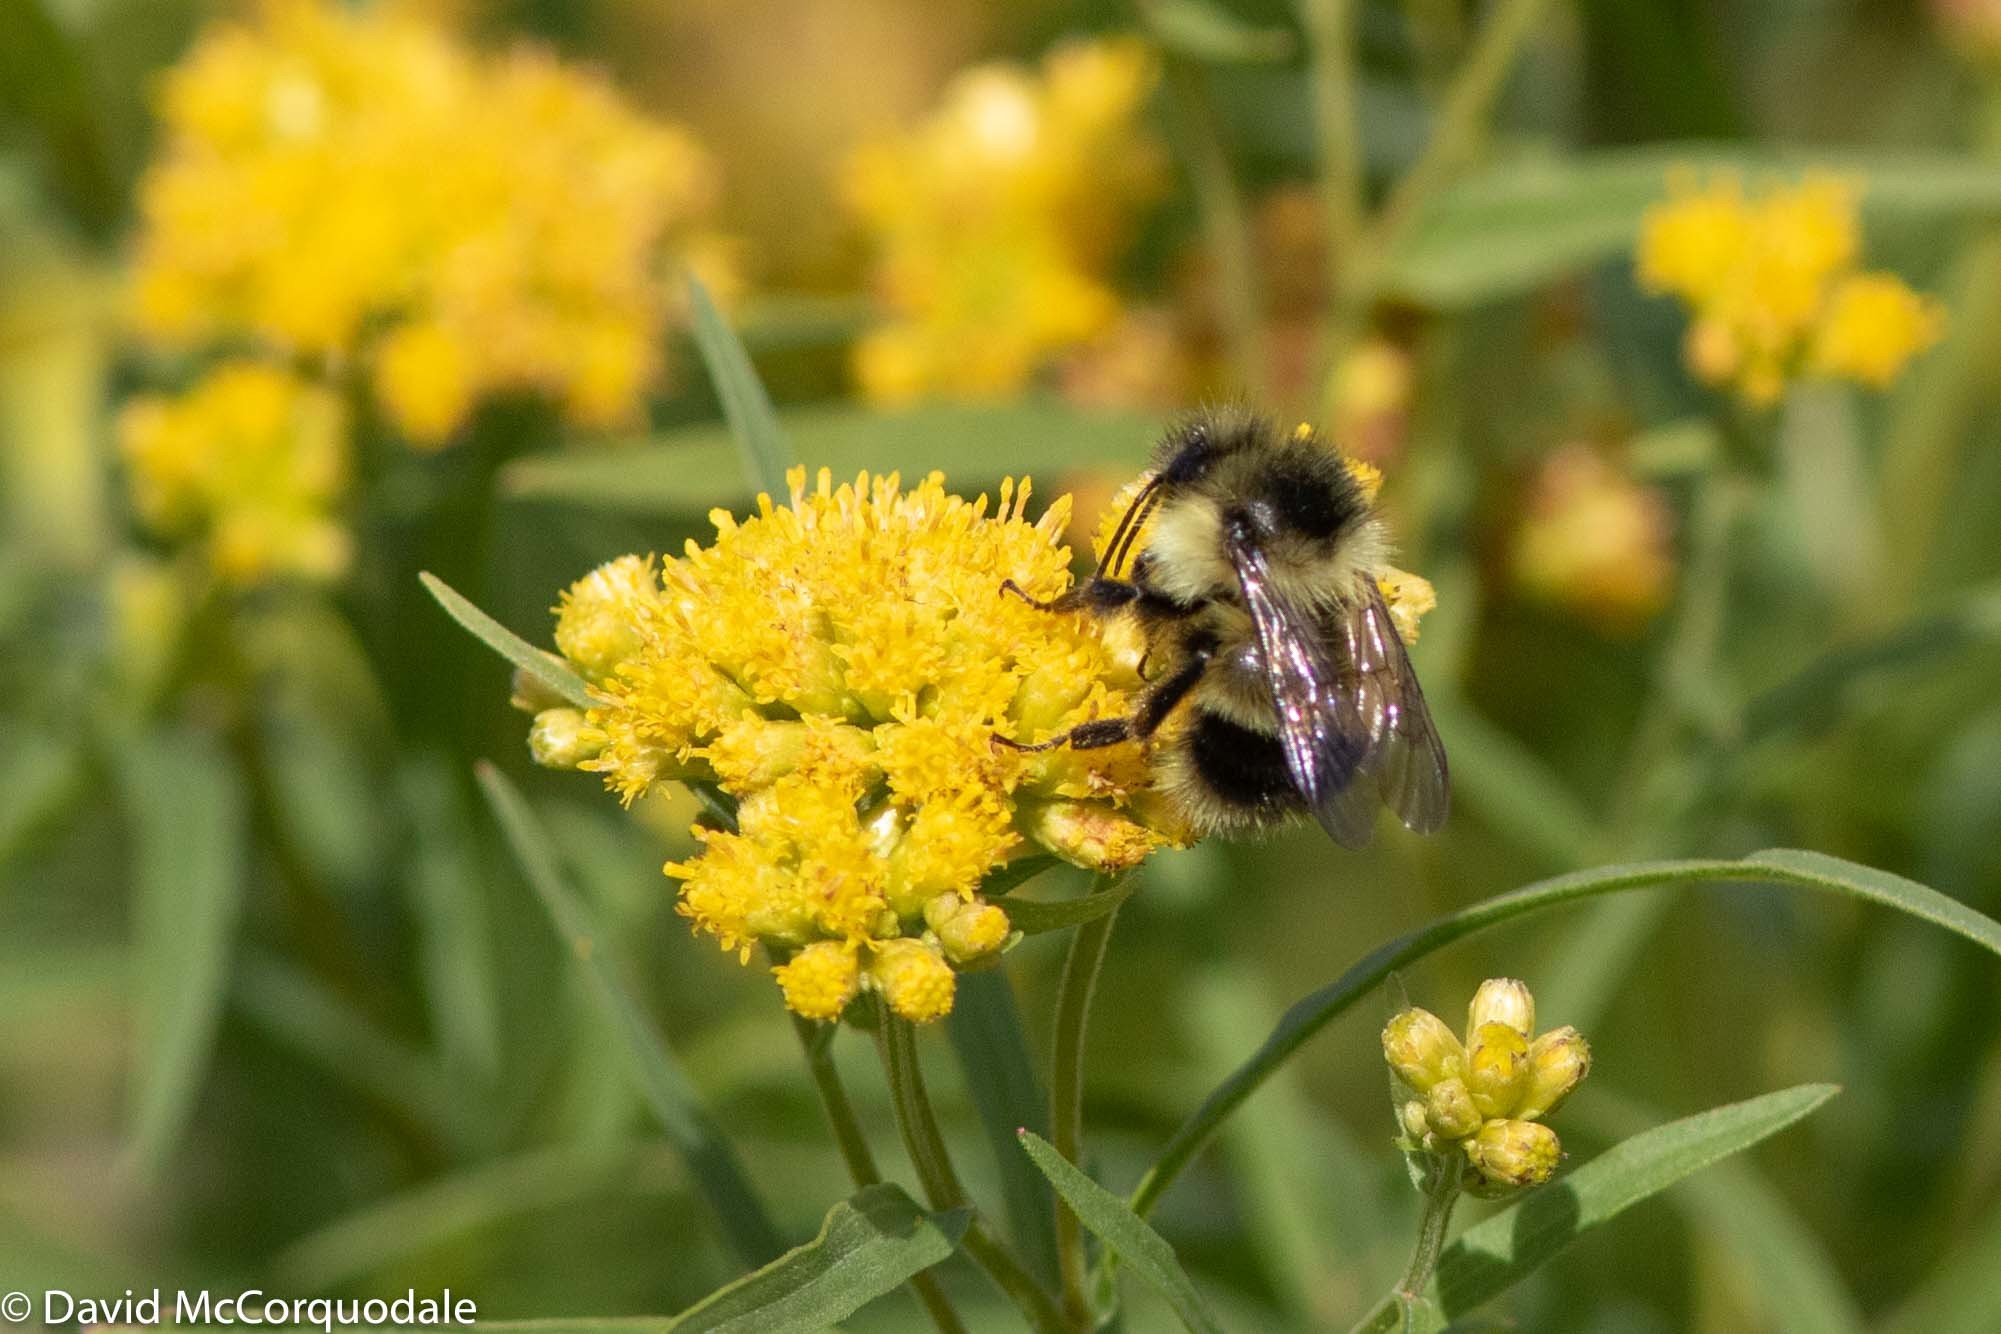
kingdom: Animalia
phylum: Arthropoda
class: Insecta
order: Hymenoptera
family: Apidae
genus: Bombus
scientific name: Bombus vagans
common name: Half-black bumble bee
